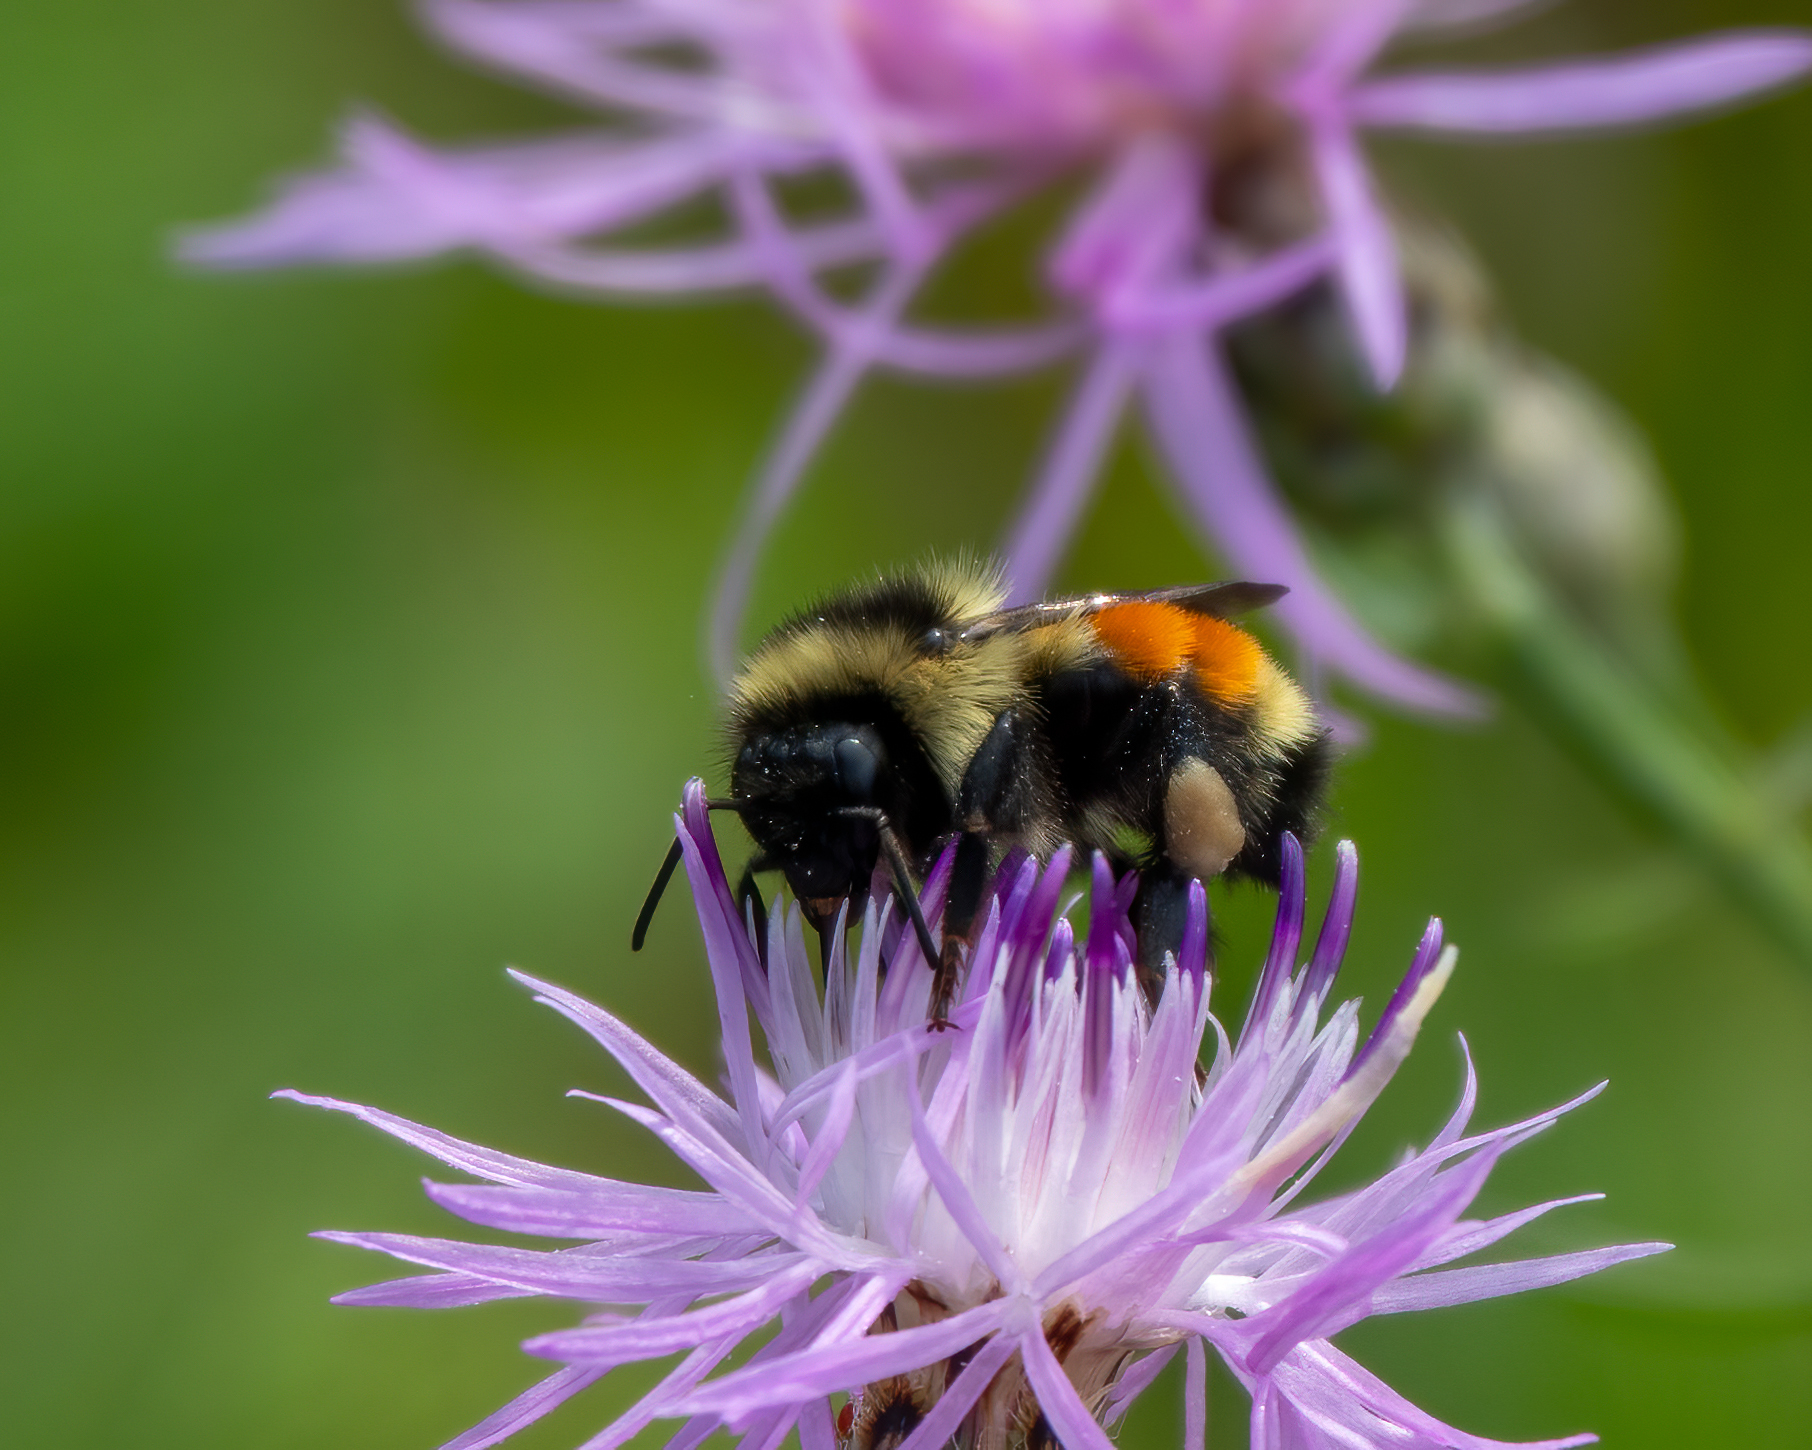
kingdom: Animalia
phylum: Arthropoda
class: Insecta
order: Hymenoptera
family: Apidae
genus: Bombus
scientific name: Bombus ternarius
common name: Tri-colored bumble bee
